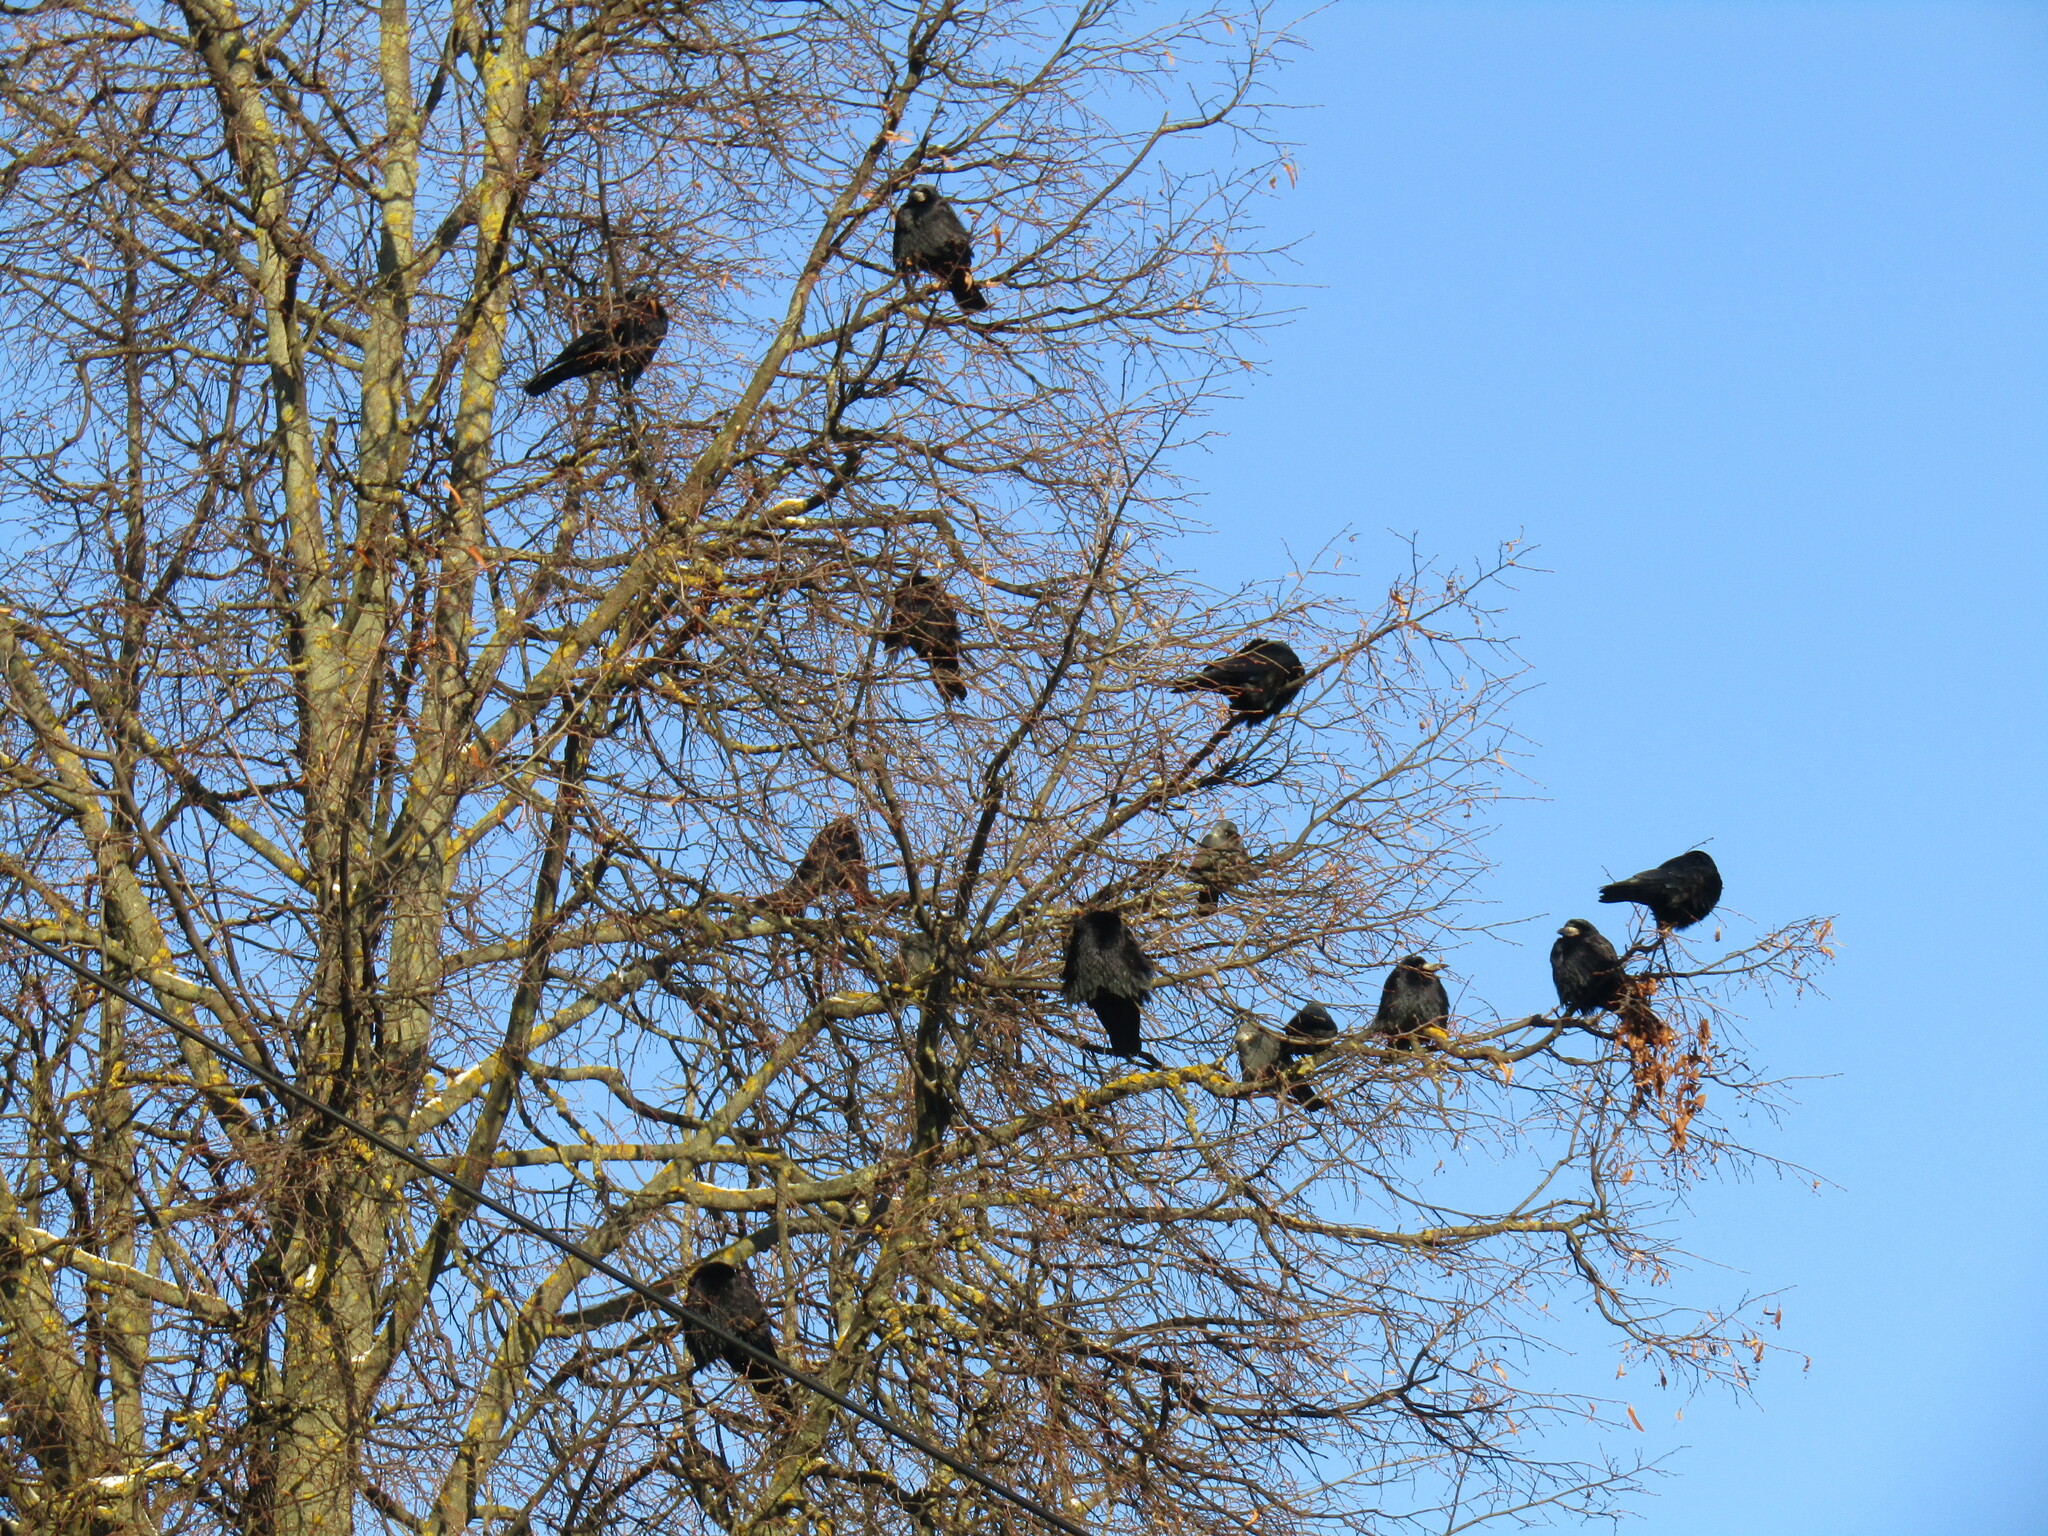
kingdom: Animalia
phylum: Chordata
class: Aves
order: Passeriformes
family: Corvidae
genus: Corvus
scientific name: Corvus frugilegus
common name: Rook
